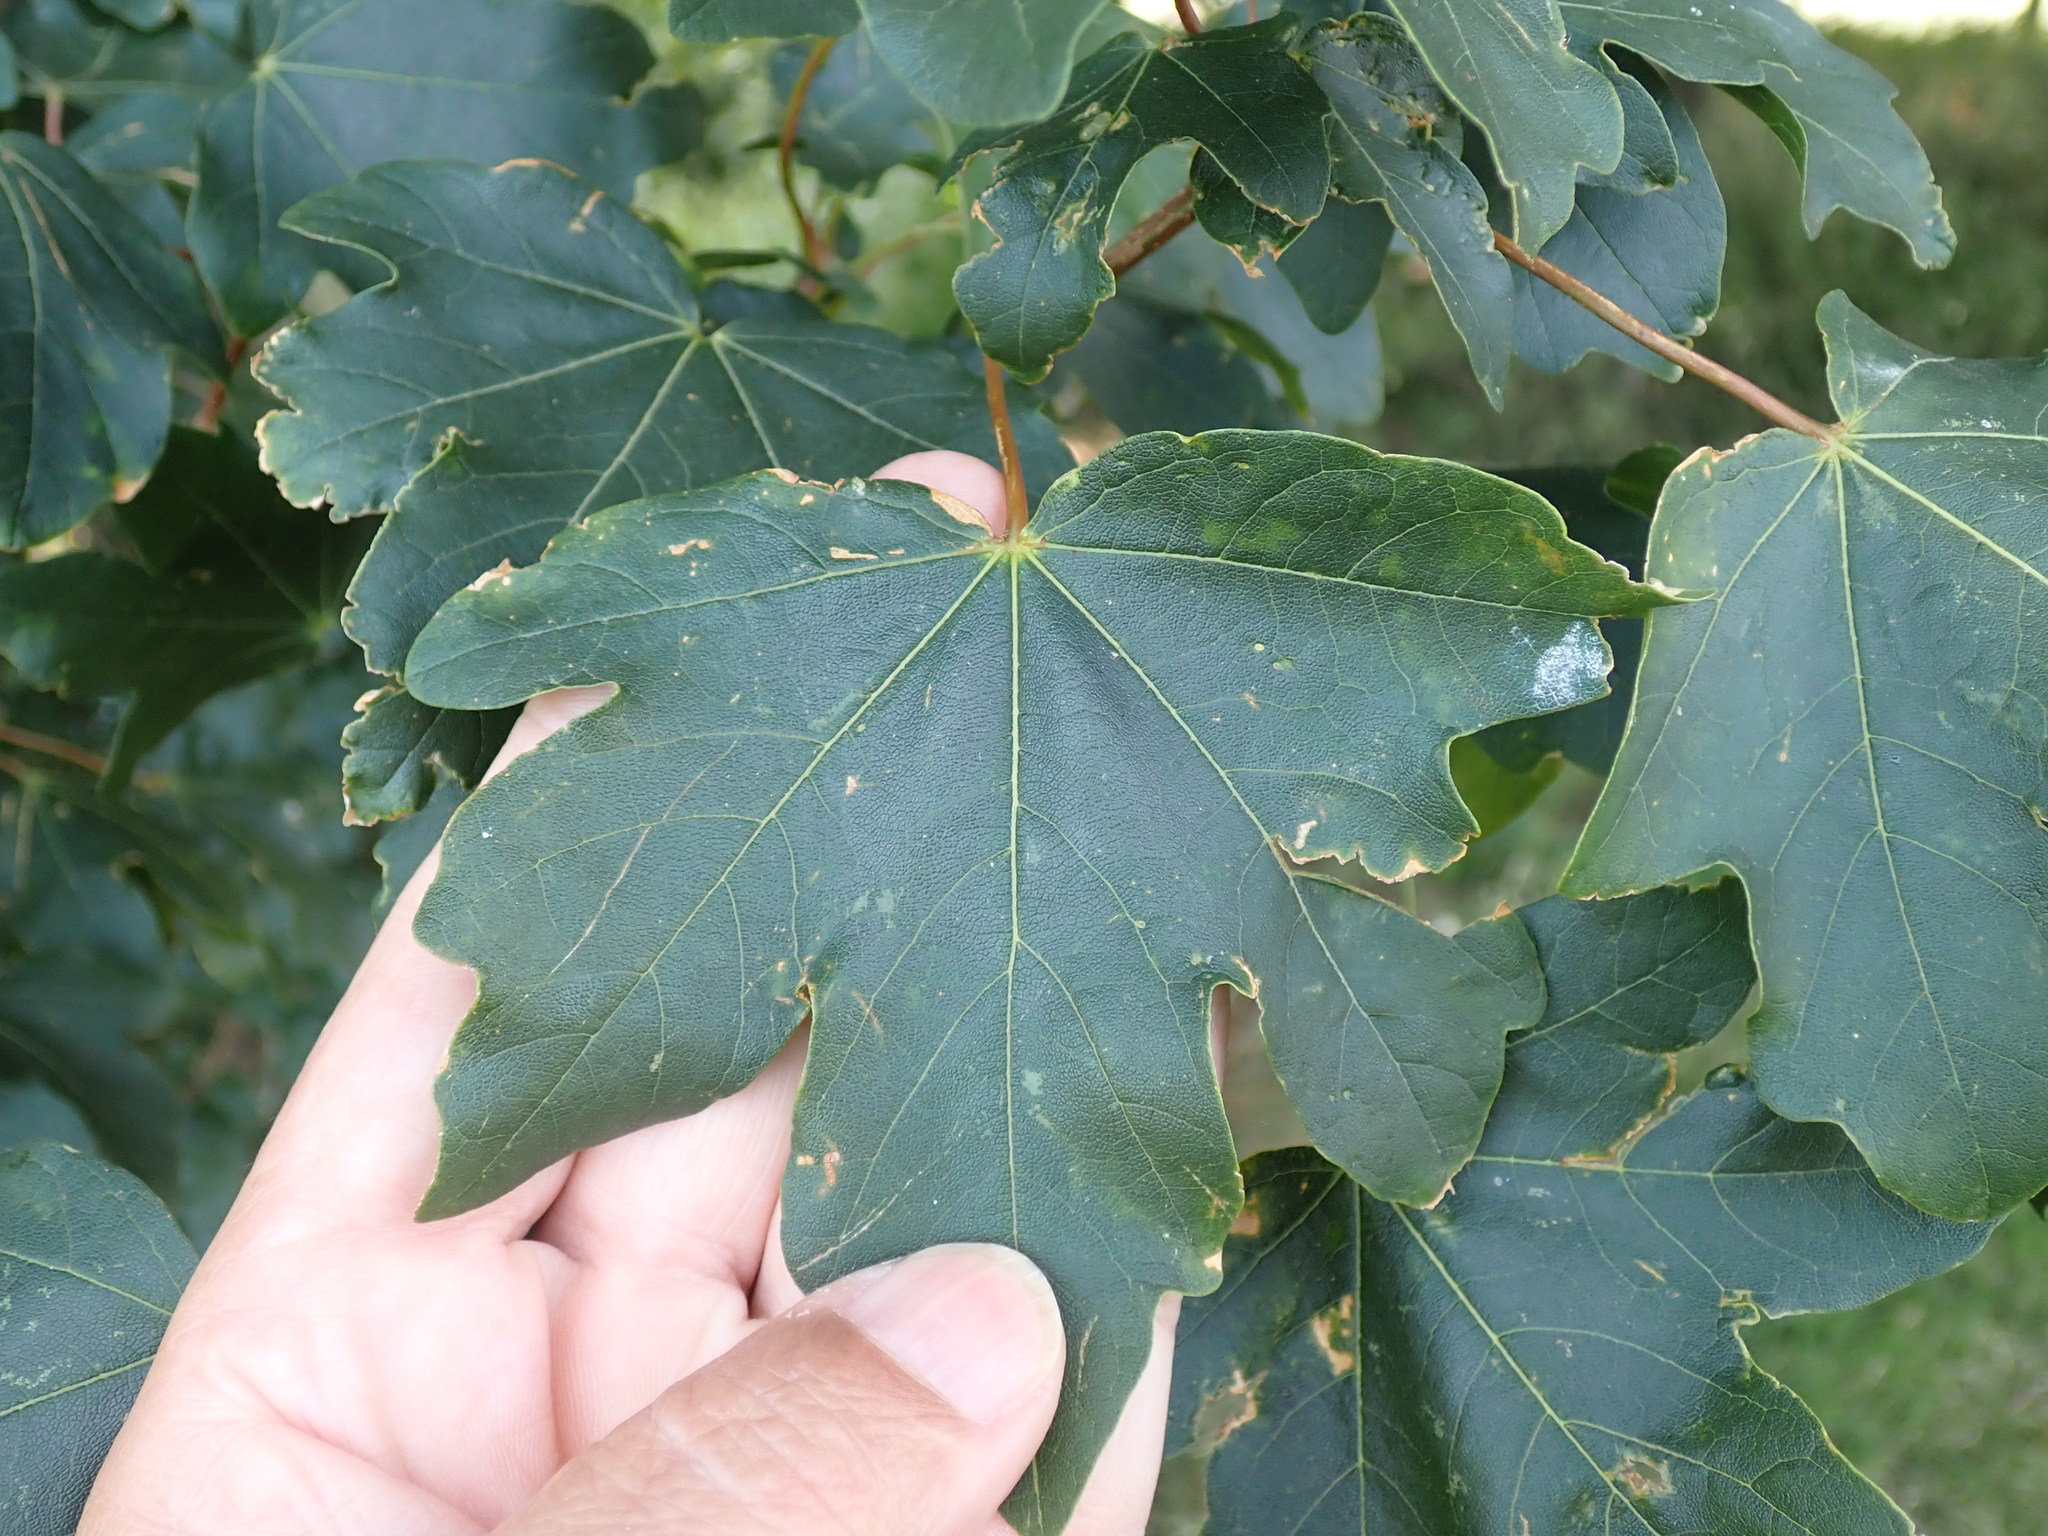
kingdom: Plantae
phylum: Tracheophyta
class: Magnoliopsida
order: Sapindales
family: Sapindaceae
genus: Acer
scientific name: Acer pseudoplatanus
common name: Sycamore
